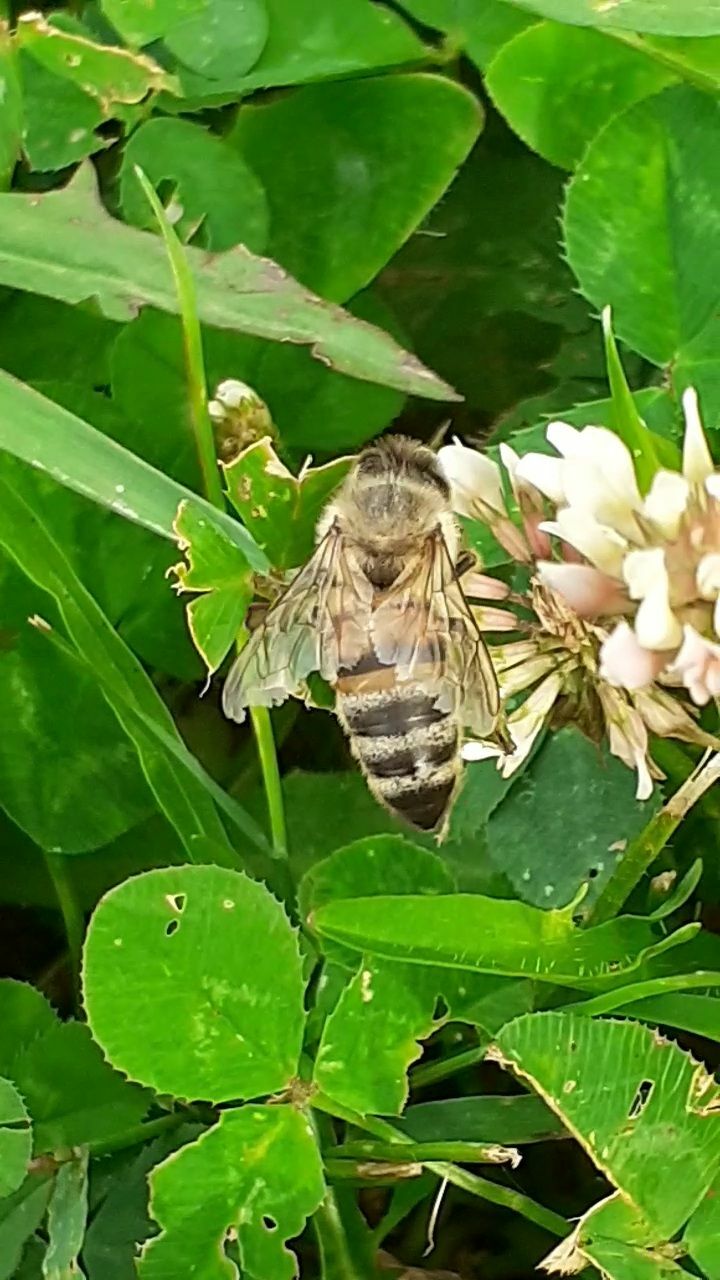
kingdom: Animalia
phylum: Arthropoda
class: Insecta
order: Hymenoptera
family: Apidae
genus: Apis
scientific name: Apis mellifera
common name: Honey bee
